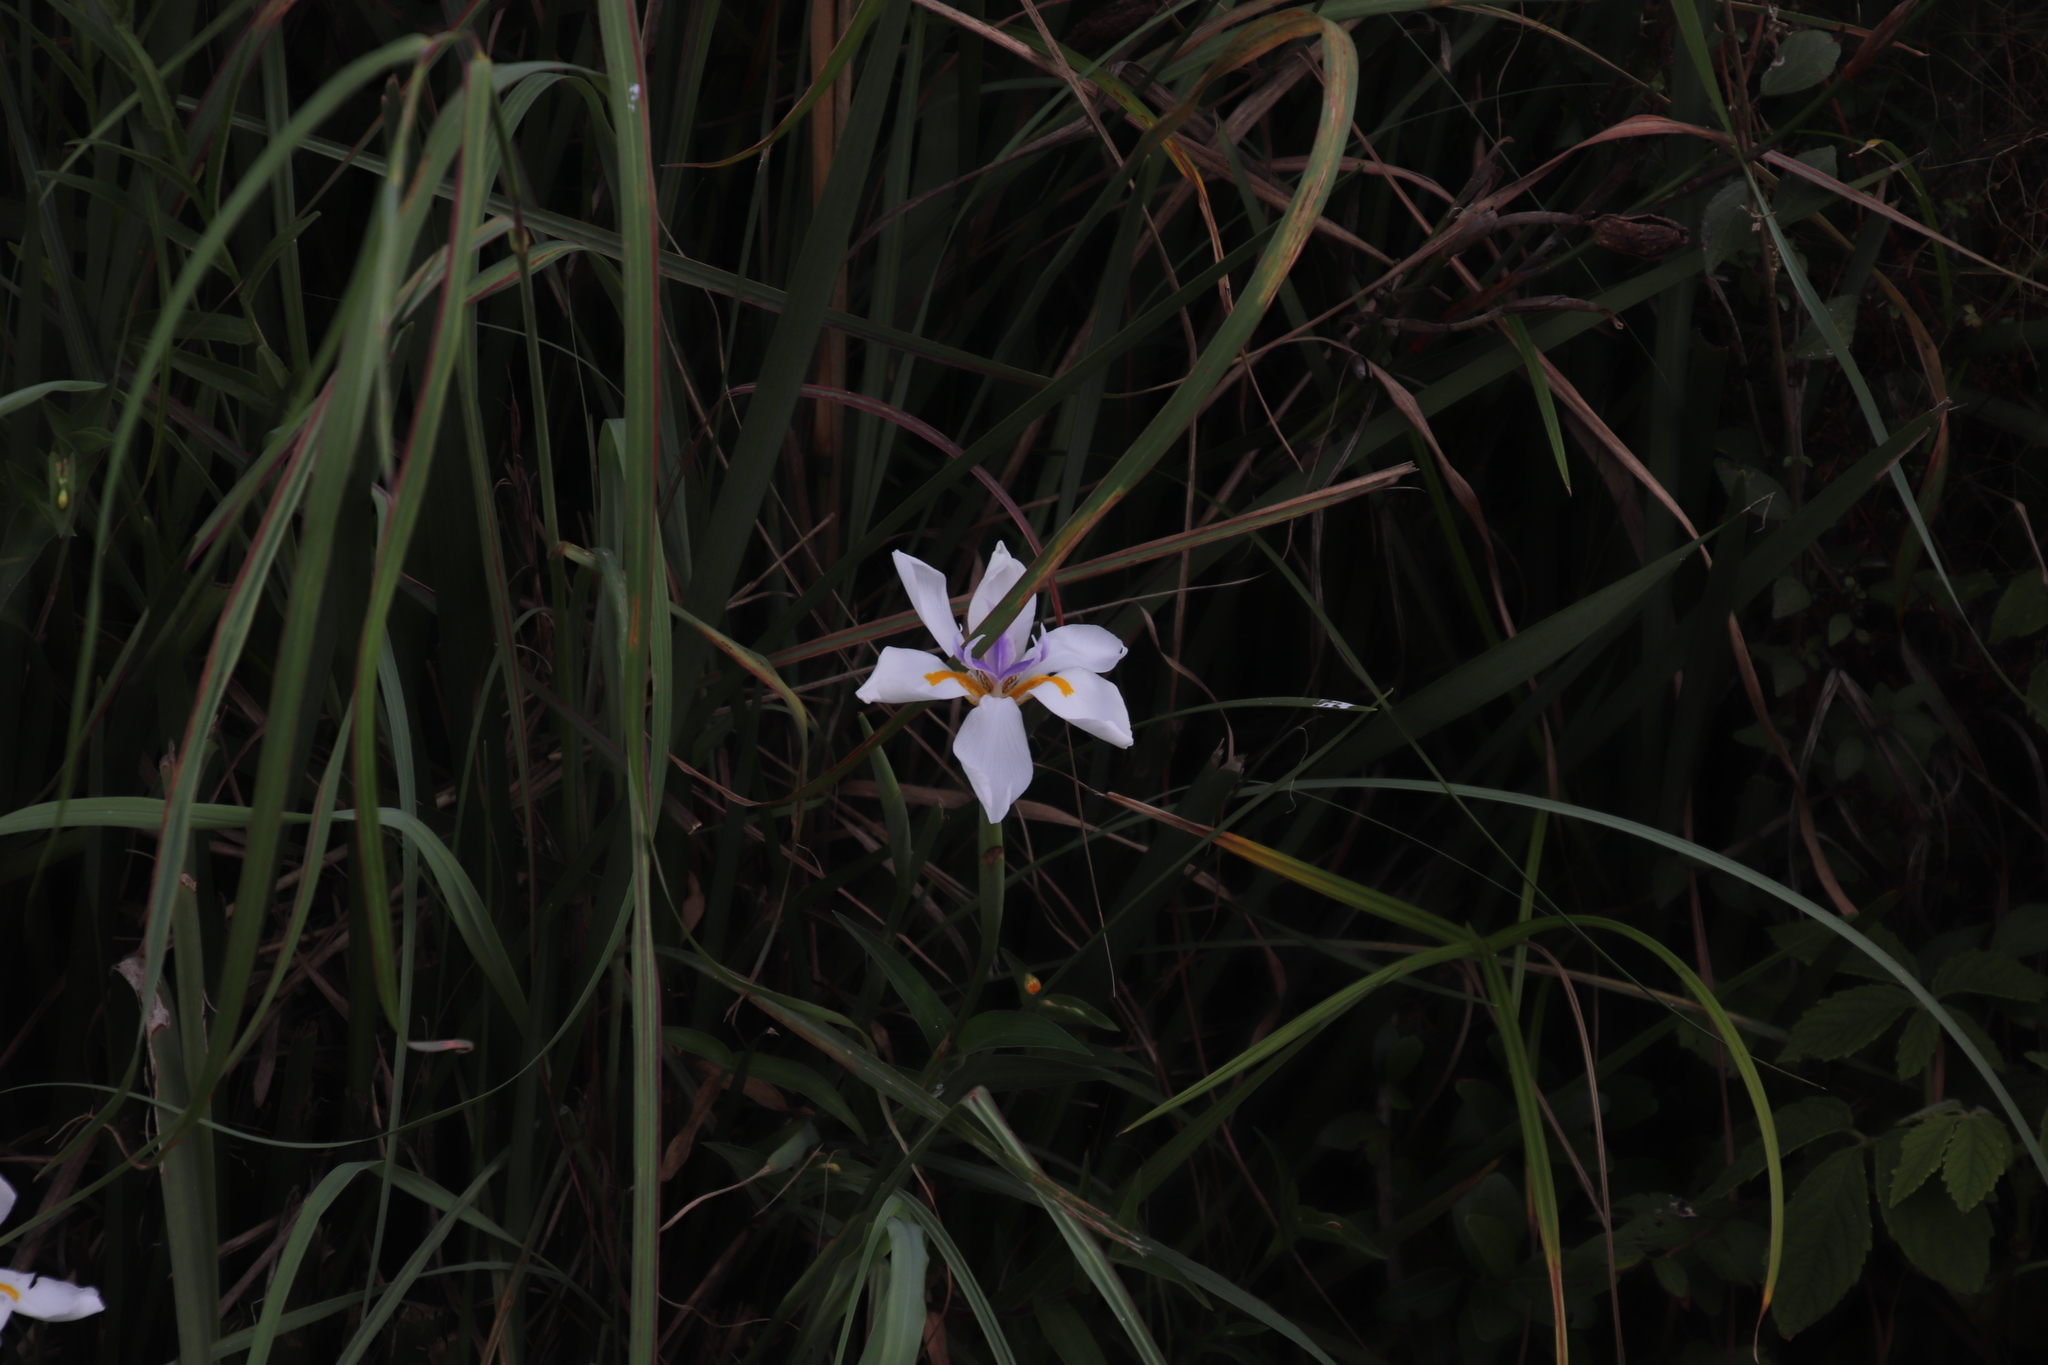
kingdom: Plantae
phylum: Tracheophyta
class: Liliopsida
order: Asparagales
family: Iridaceae
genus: Dietes
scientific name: Dietes grandiflora
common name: Wild iris
